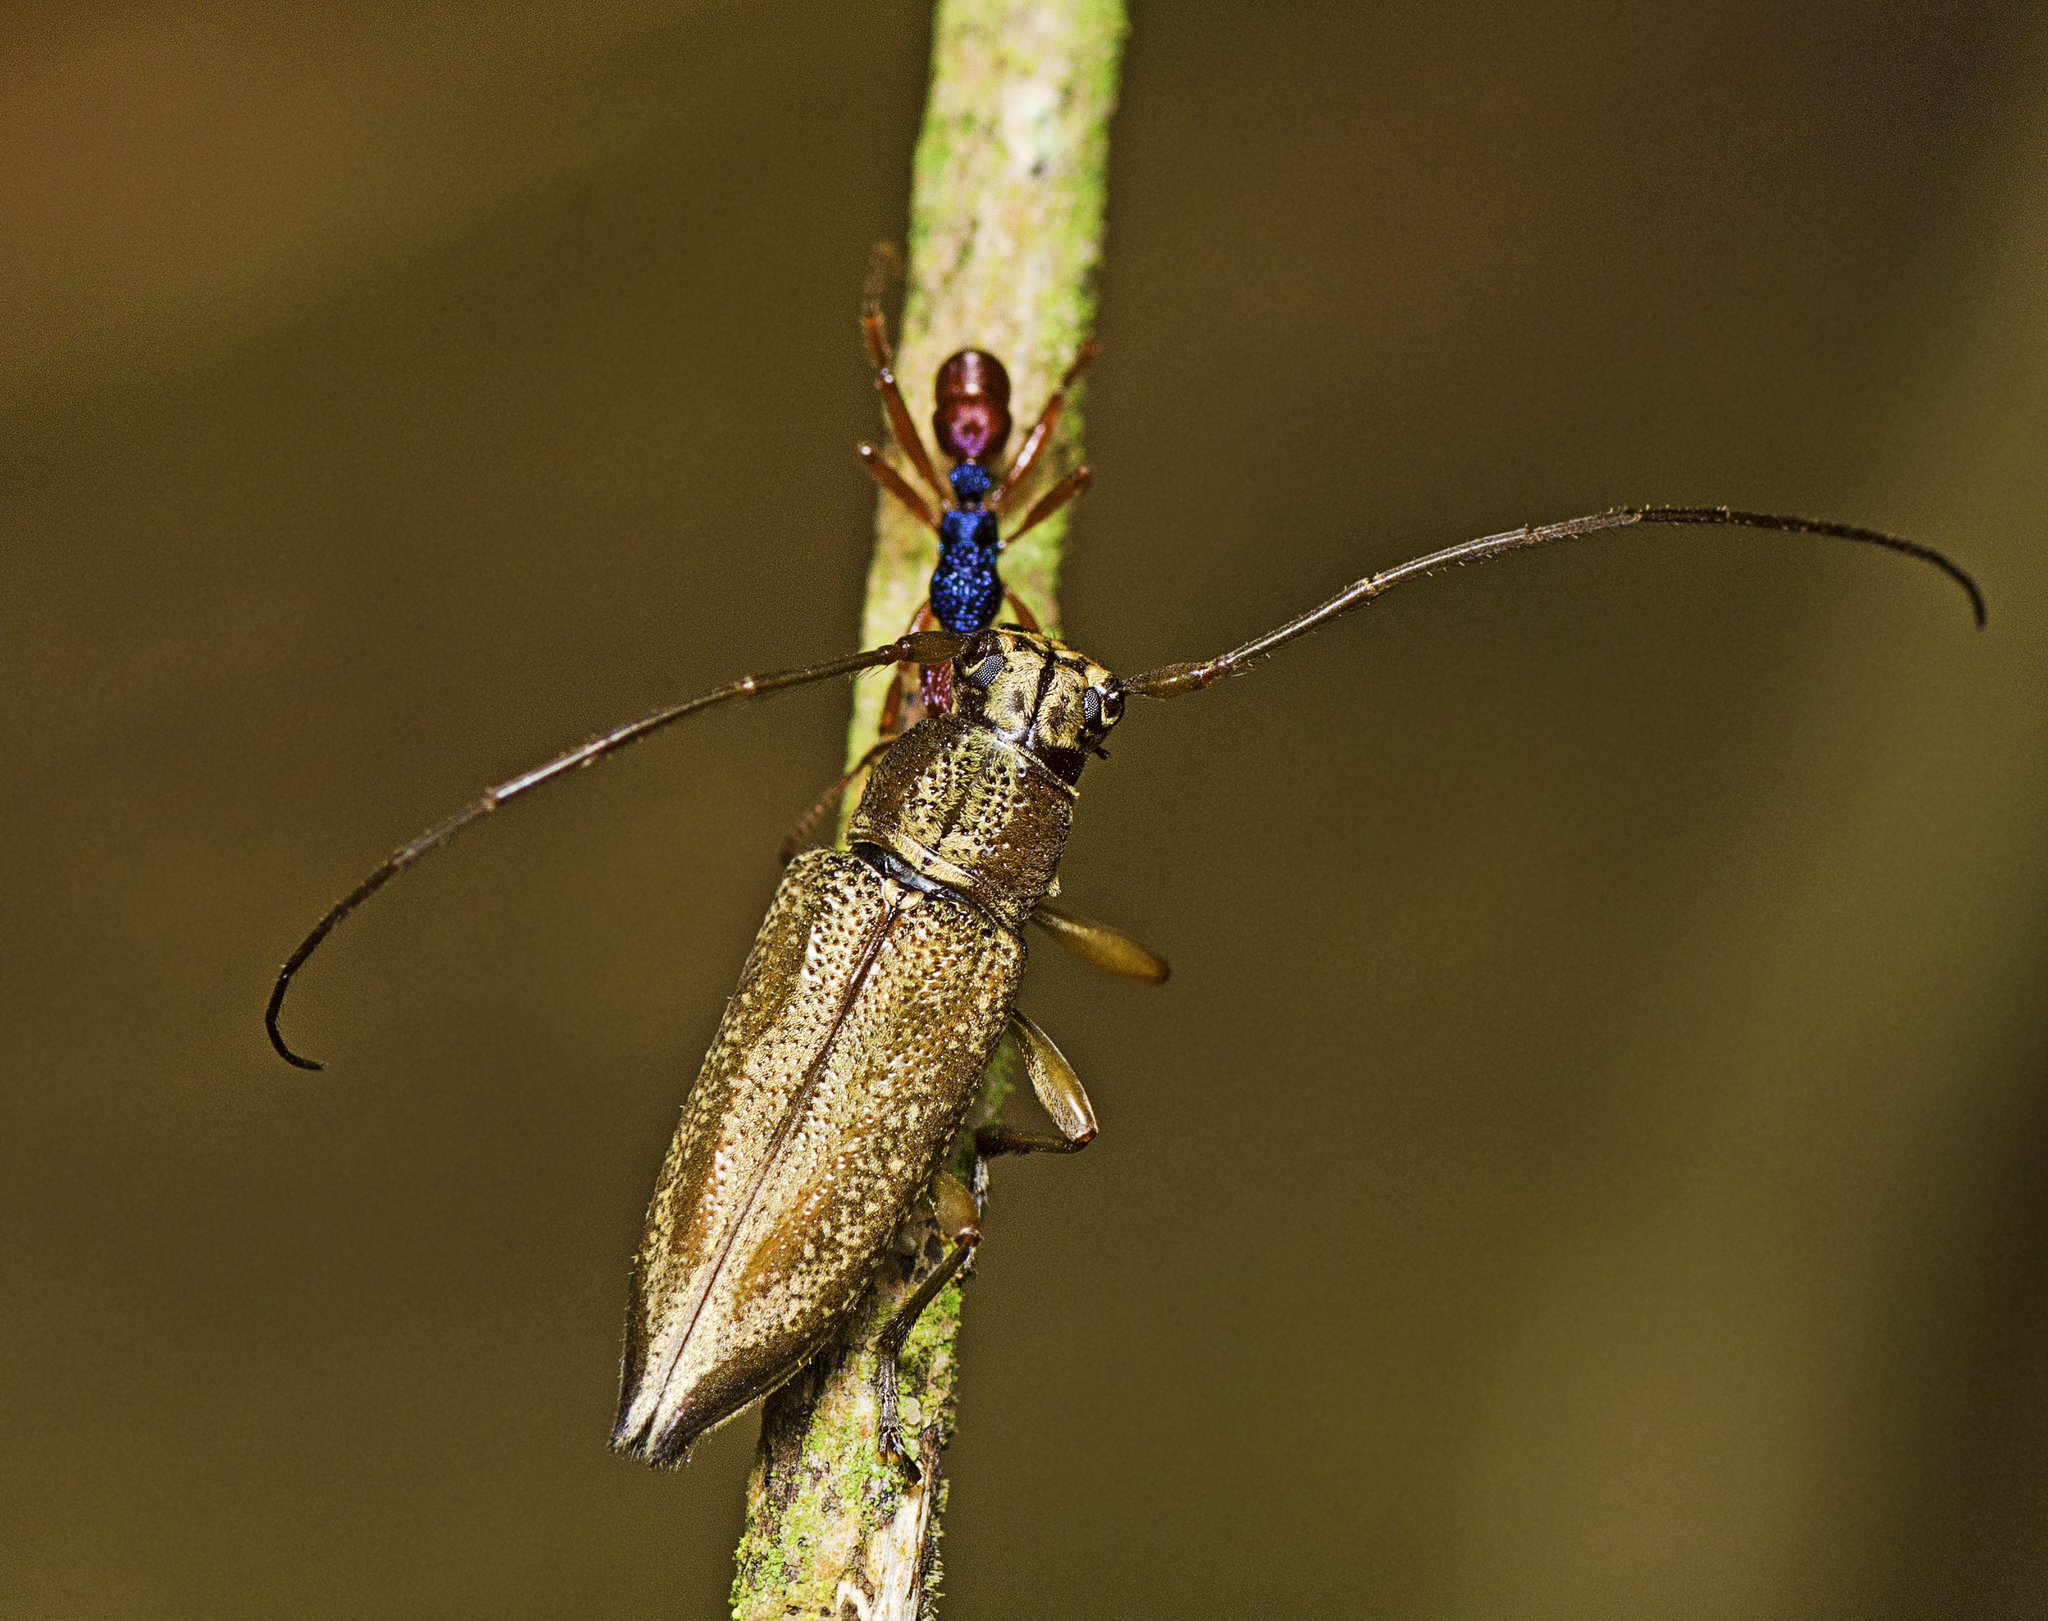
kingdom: Animalia
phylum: Arthropoda
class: Insecta
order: Coleoptera
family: Cerambycidae
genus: Temnosternus
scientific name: Temnosternus planiusculus
